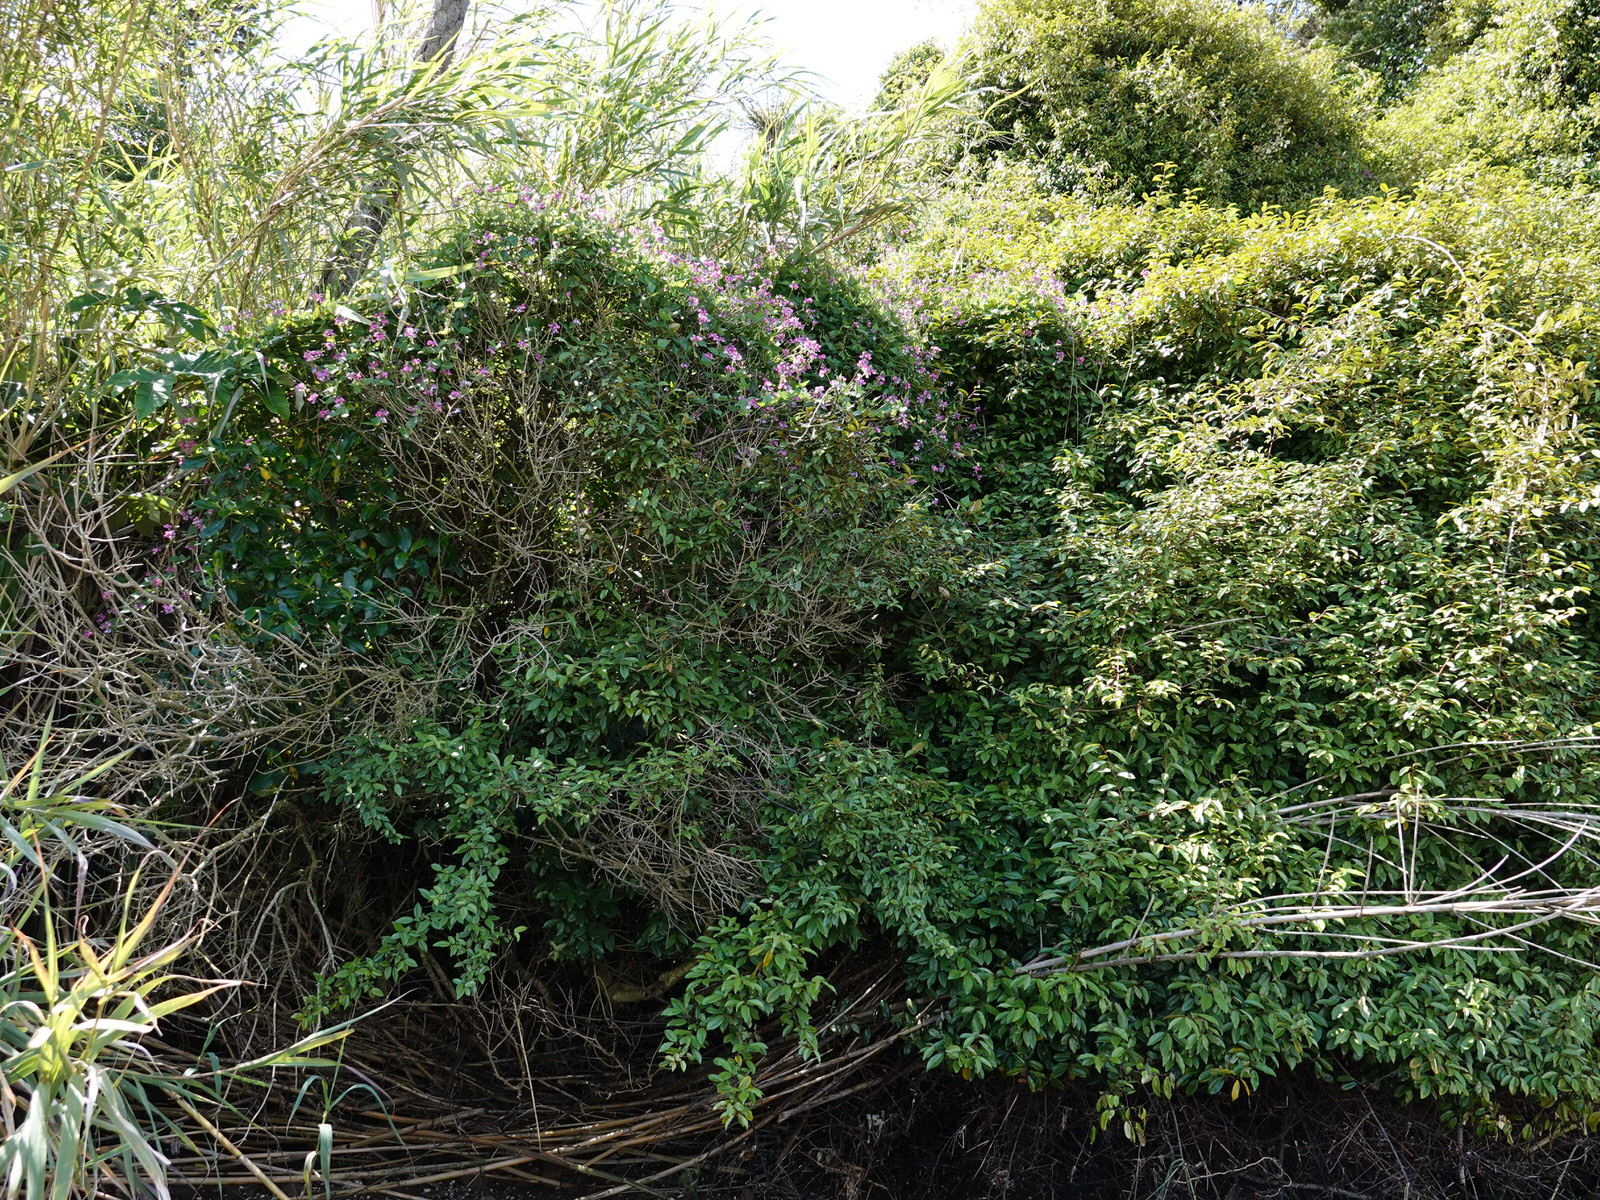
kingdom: Plantae
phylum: Tracheophyta
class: Magnoliopsida
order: Fabales
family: Fabaceae
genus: Dipogon
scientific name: Dipogon lignosus
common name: Okie bean
